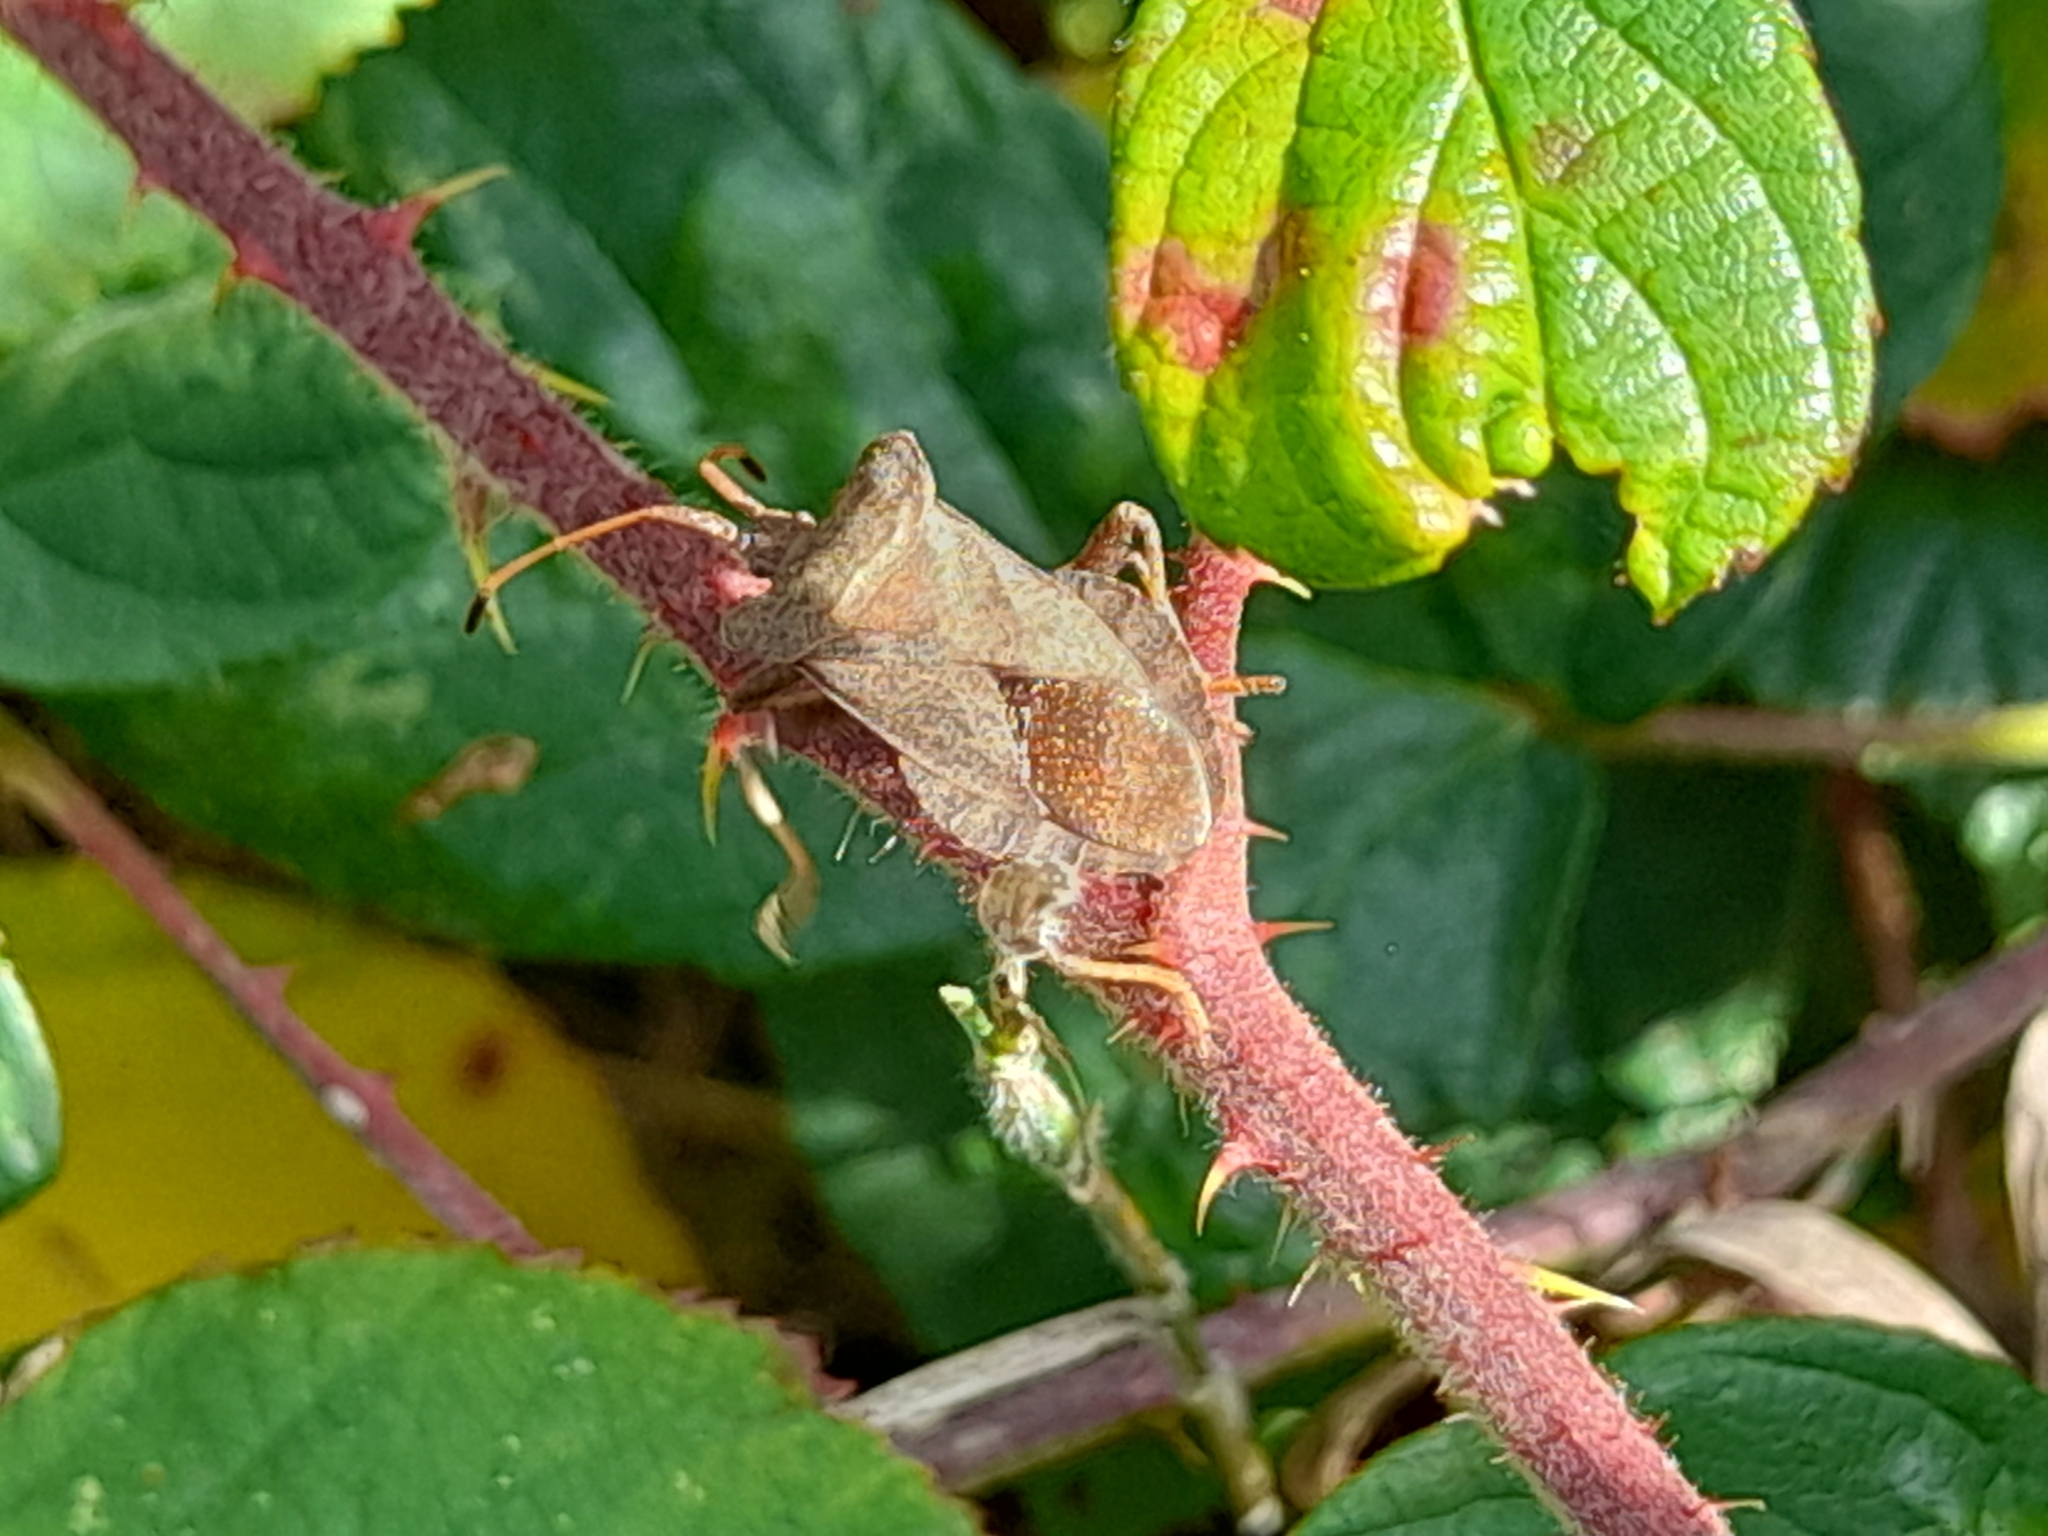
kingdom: Animalia
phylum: Arthropoda
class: Insecta
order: Hemiptera
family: Coreidae
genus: Coreus
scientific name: Coreus marginatus
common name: Dock bug
